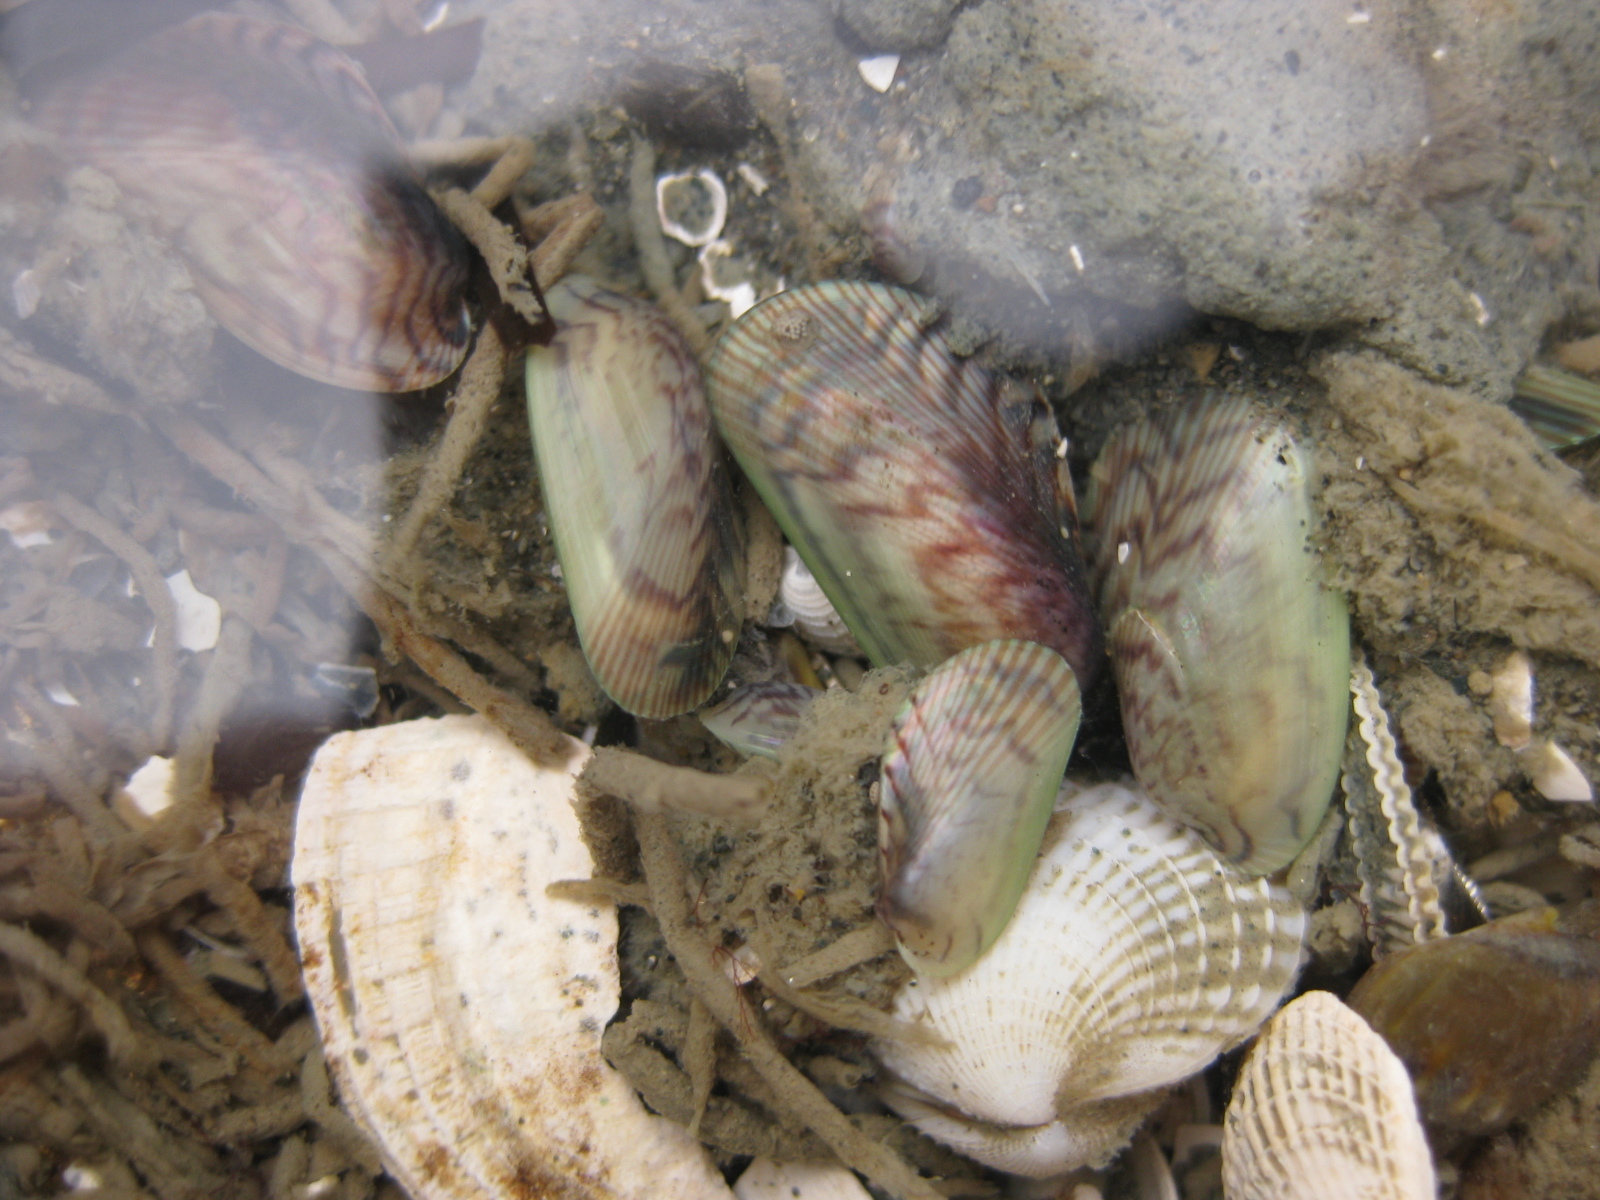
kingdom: Animalia
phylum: Mollusca
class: Bivalvia
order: Mytilida
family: Mytilidae
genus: Arcuatula
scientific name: Arcuatula senhousia
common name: Asian mussel
